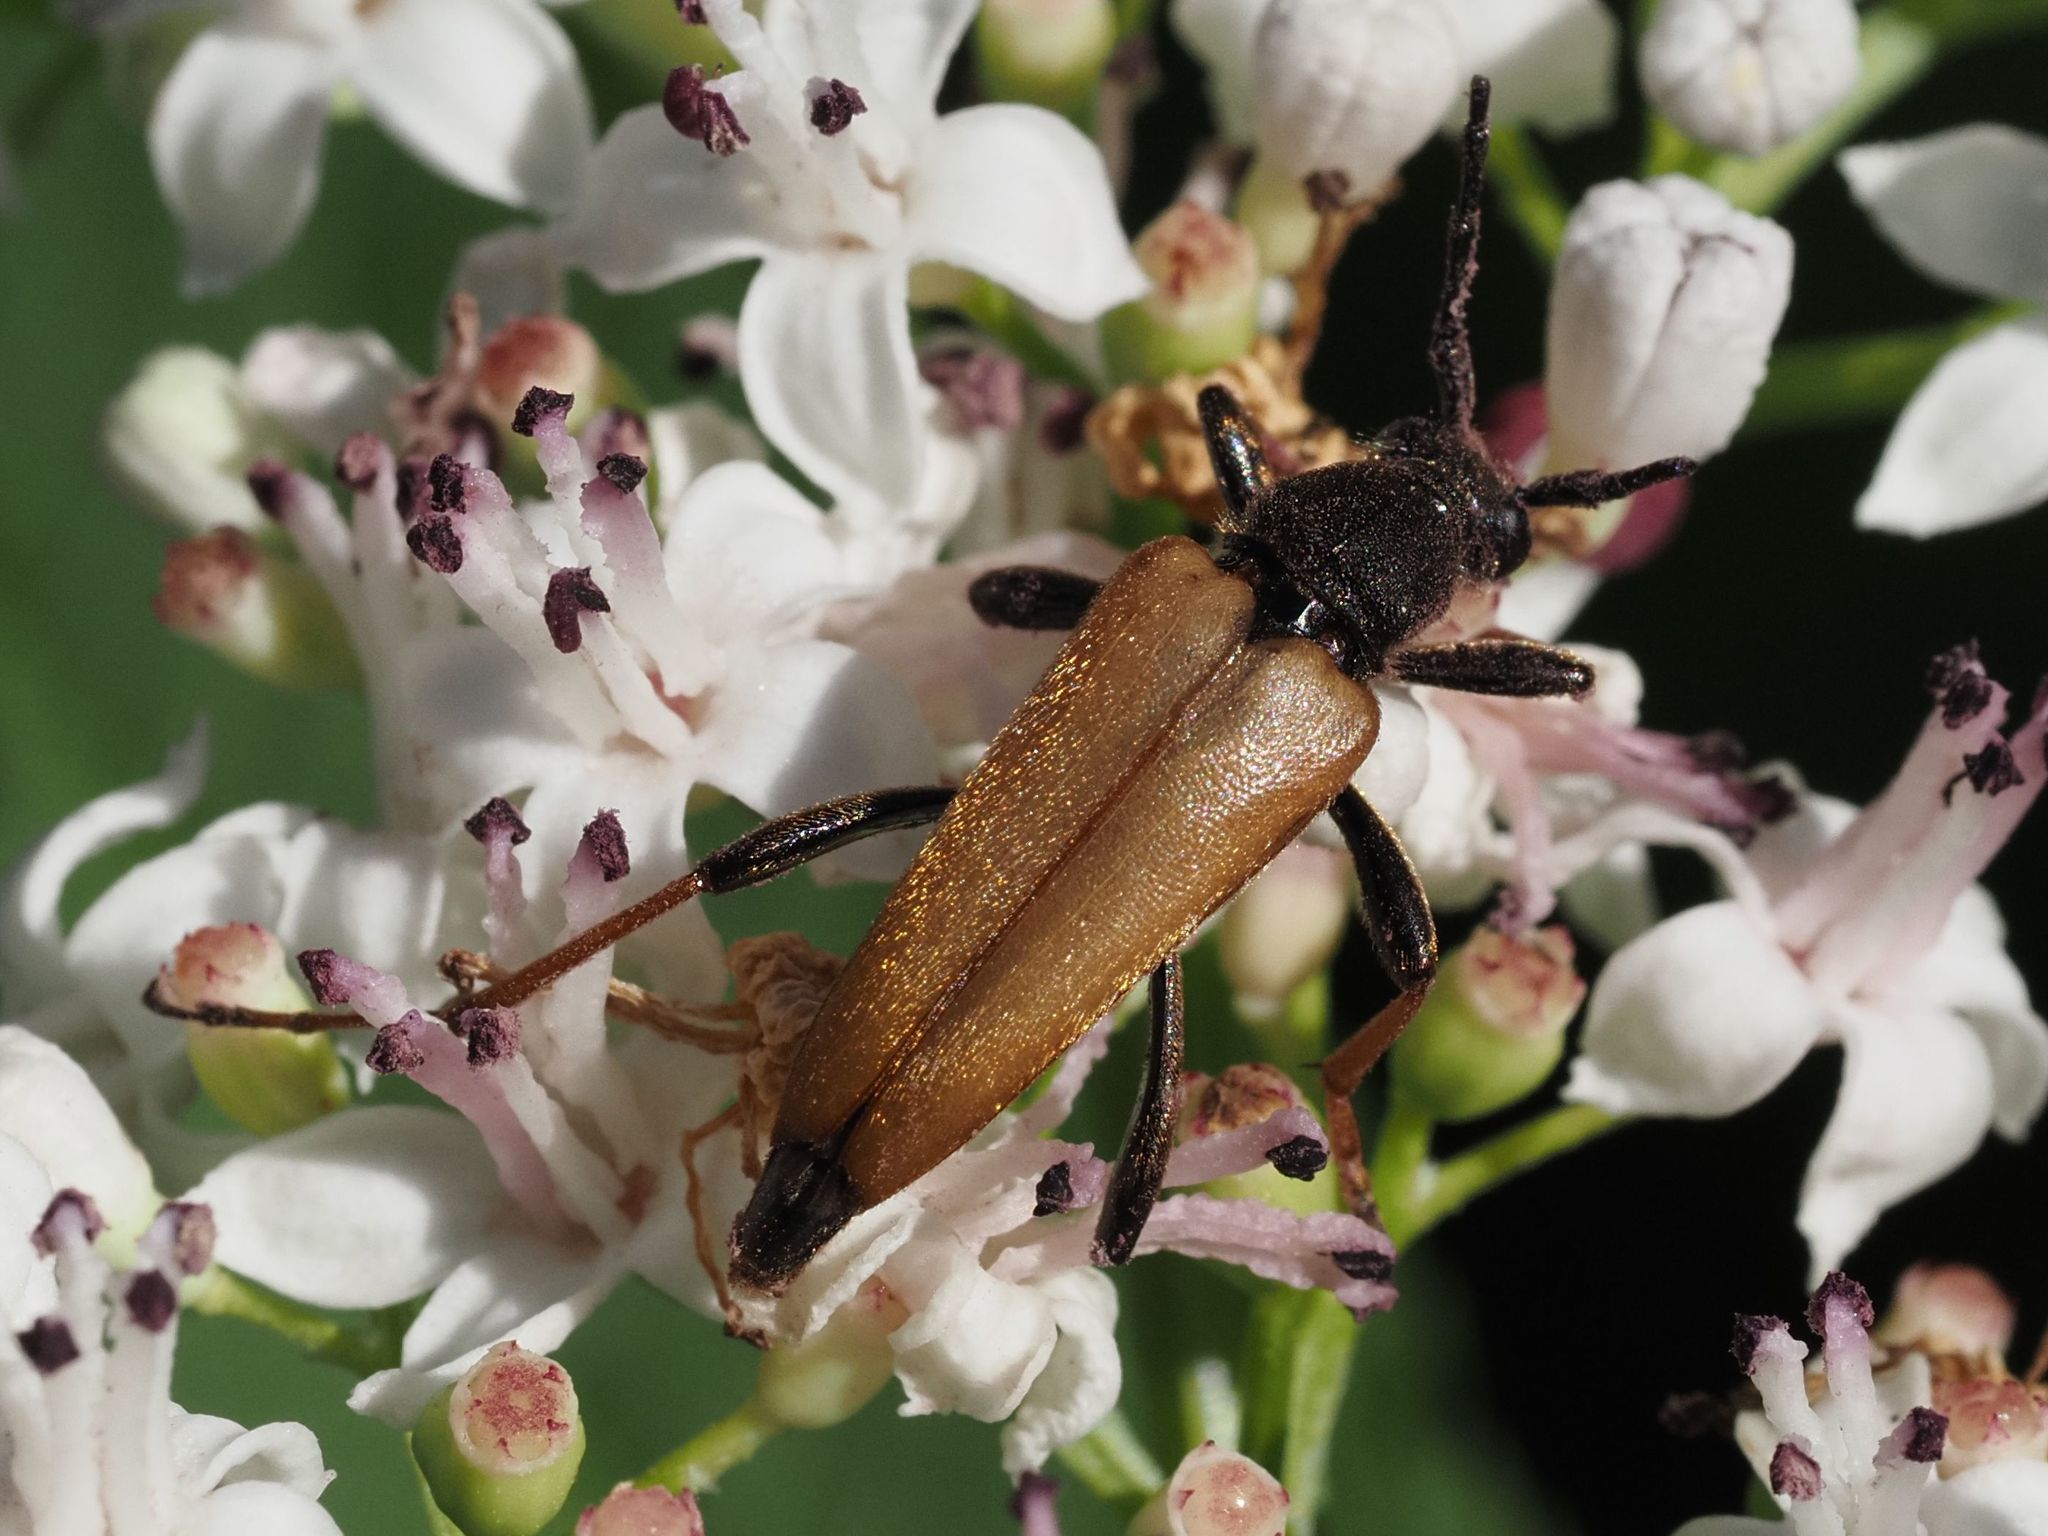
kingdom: Animalia
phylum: Arthropoda
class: Insecta
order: Coleoptera
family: Cerambycidae
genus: Stictoleptura
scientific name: Stictoleptura rubra
